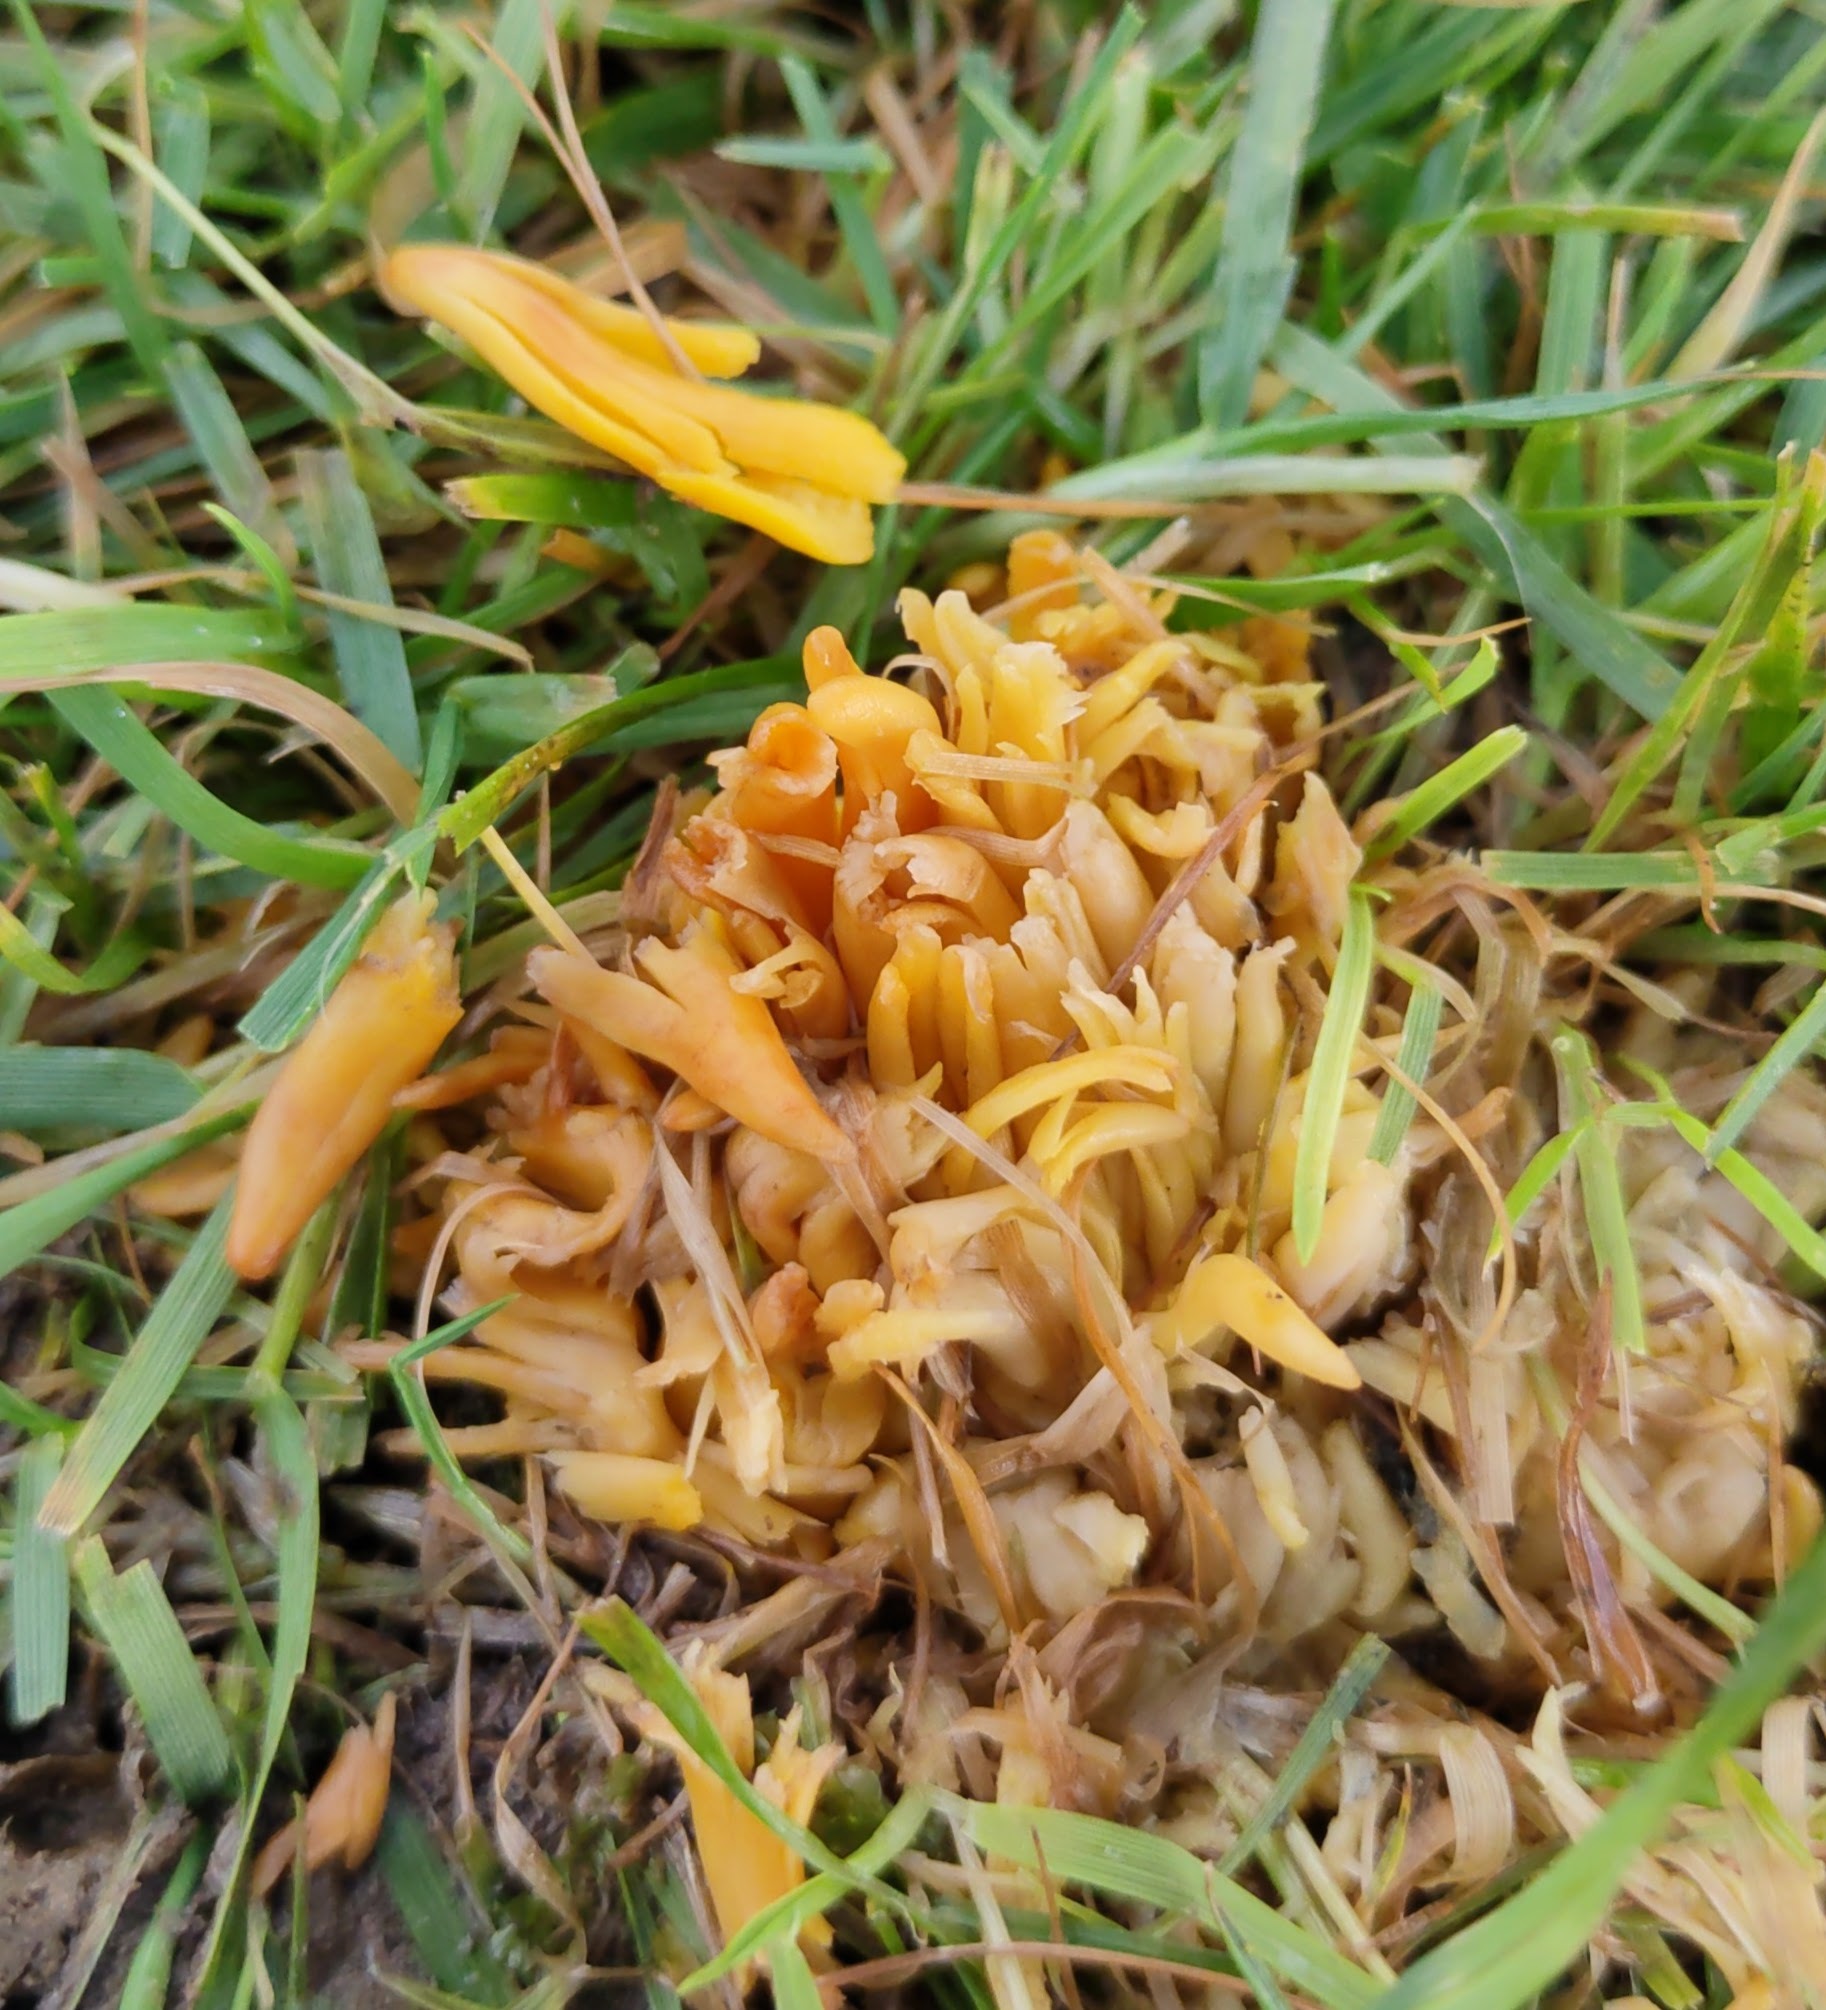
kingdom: Fungi
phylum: Basidiomycota
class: Agaricomycetes
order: Agaricales
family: Clavariaceae
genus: Clavulinopsis
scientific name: Clavulinopsis fusiformis
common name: Golden spindles
